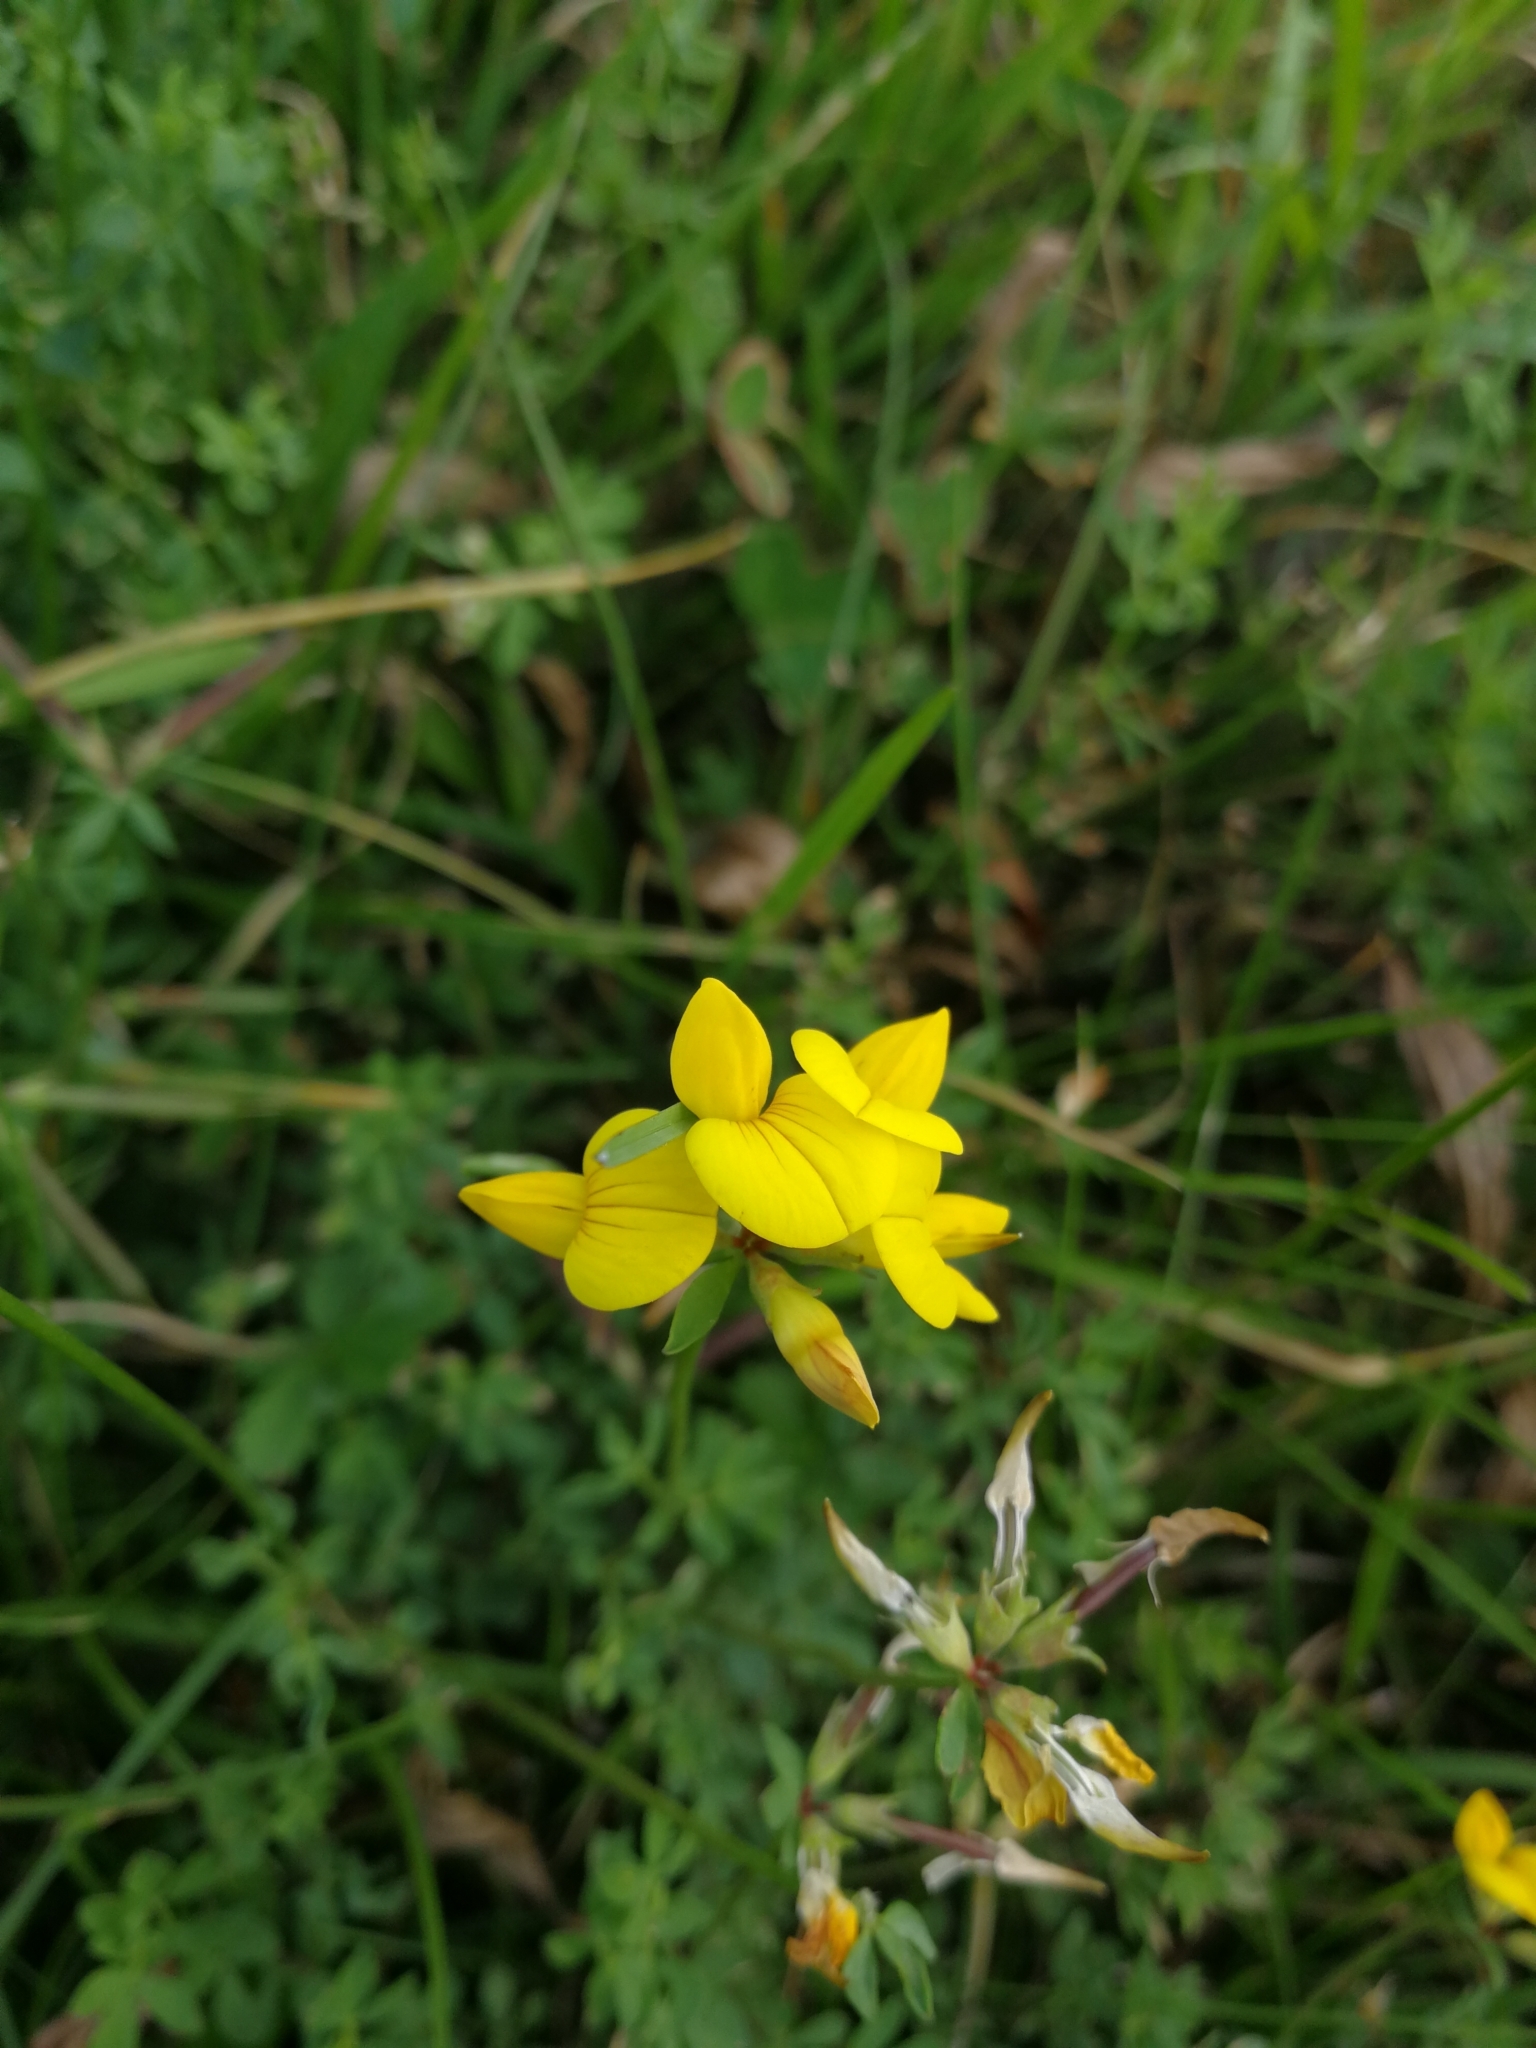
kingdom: Plantae
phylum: Tracheophyta
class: Magnoliopsida
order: Fabales
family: Fabaceae
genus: Lotus
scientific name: Lotus corniculatus
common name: Common bird's-foot-trefoil
